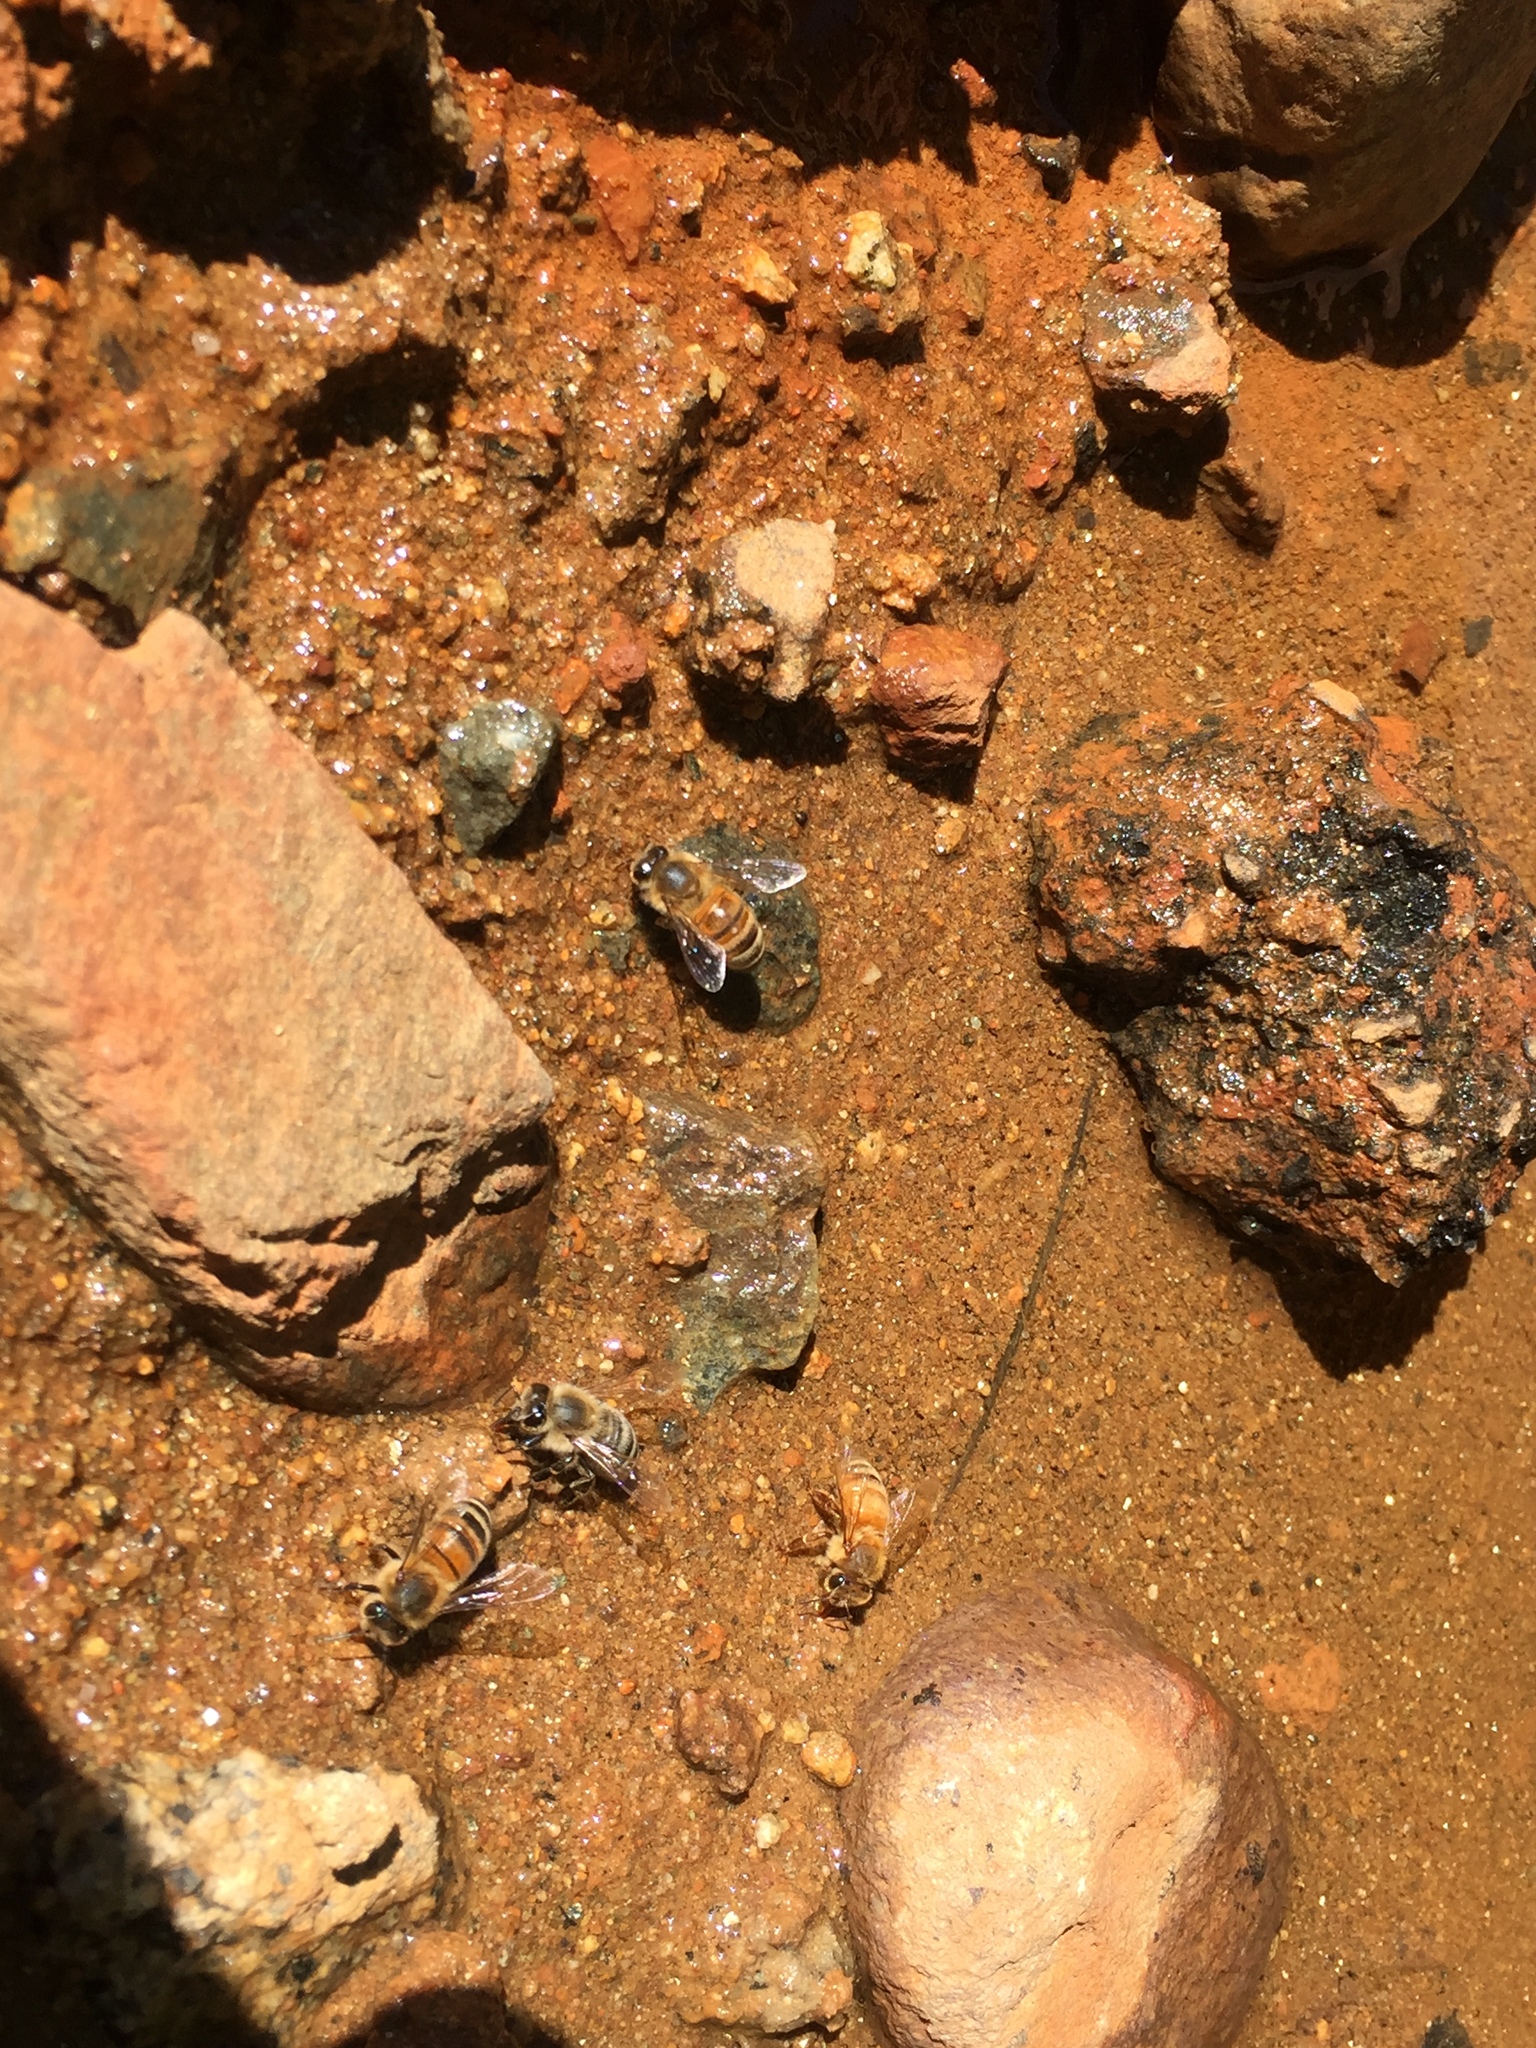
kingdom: Animalia
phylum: Arthropoda
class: Insecta
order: Hymenoptera
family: Apidae
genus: Apis
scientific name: Apis mellifera
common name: Honey bee
